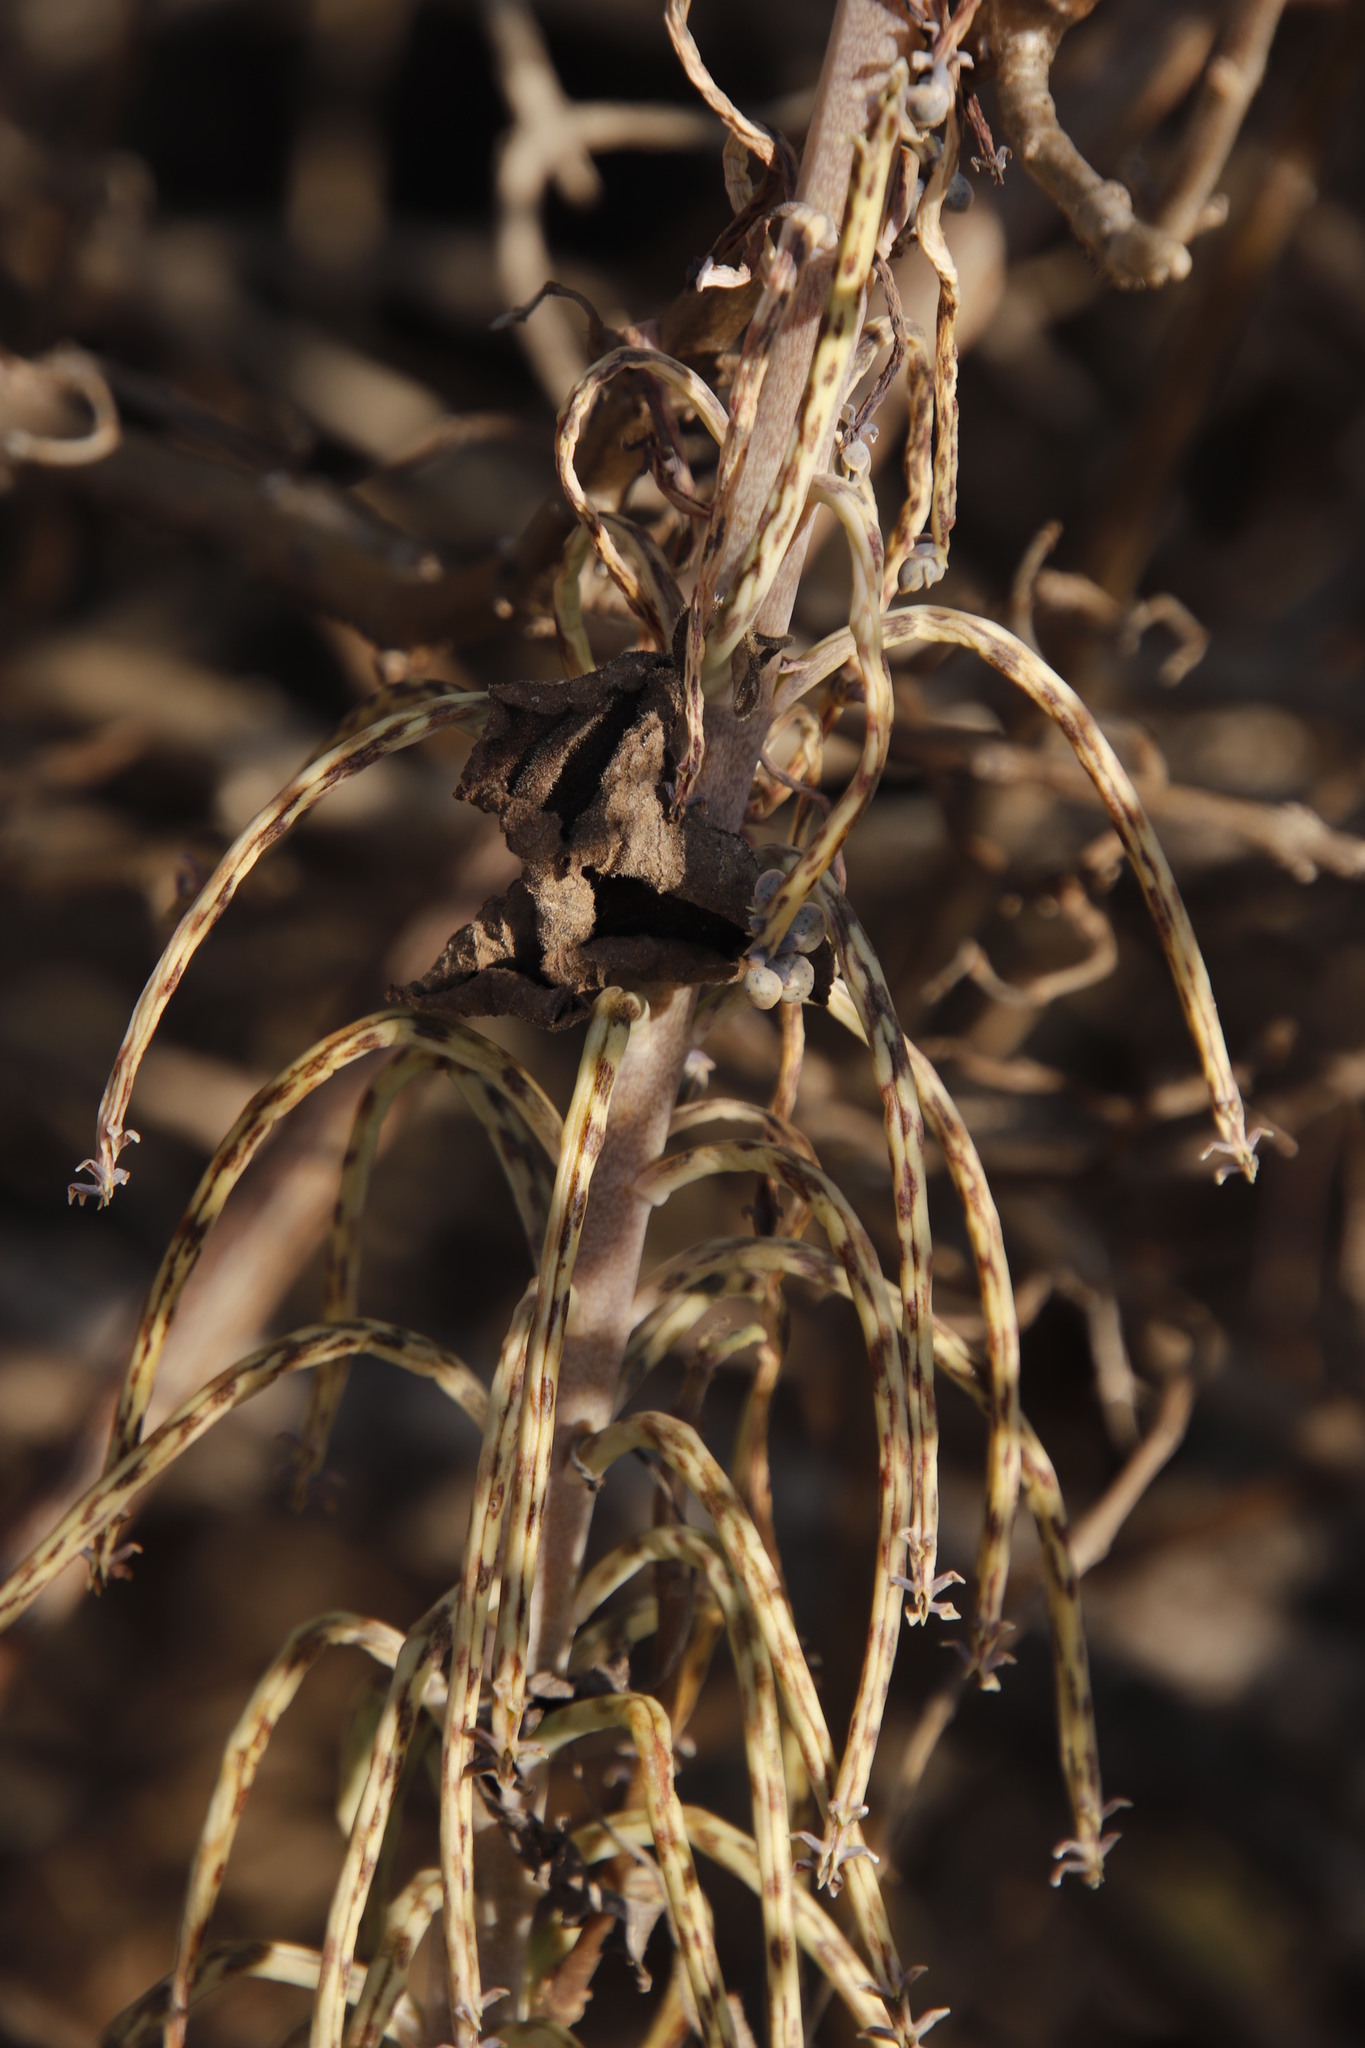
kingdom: Plantae
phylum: Tracheophyta
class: Magnoliopsida
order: Saxifragales
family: Crassulaceae
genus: Kalanchoe
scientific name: Kalanchoe delagoensis
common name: Chandelier plant
